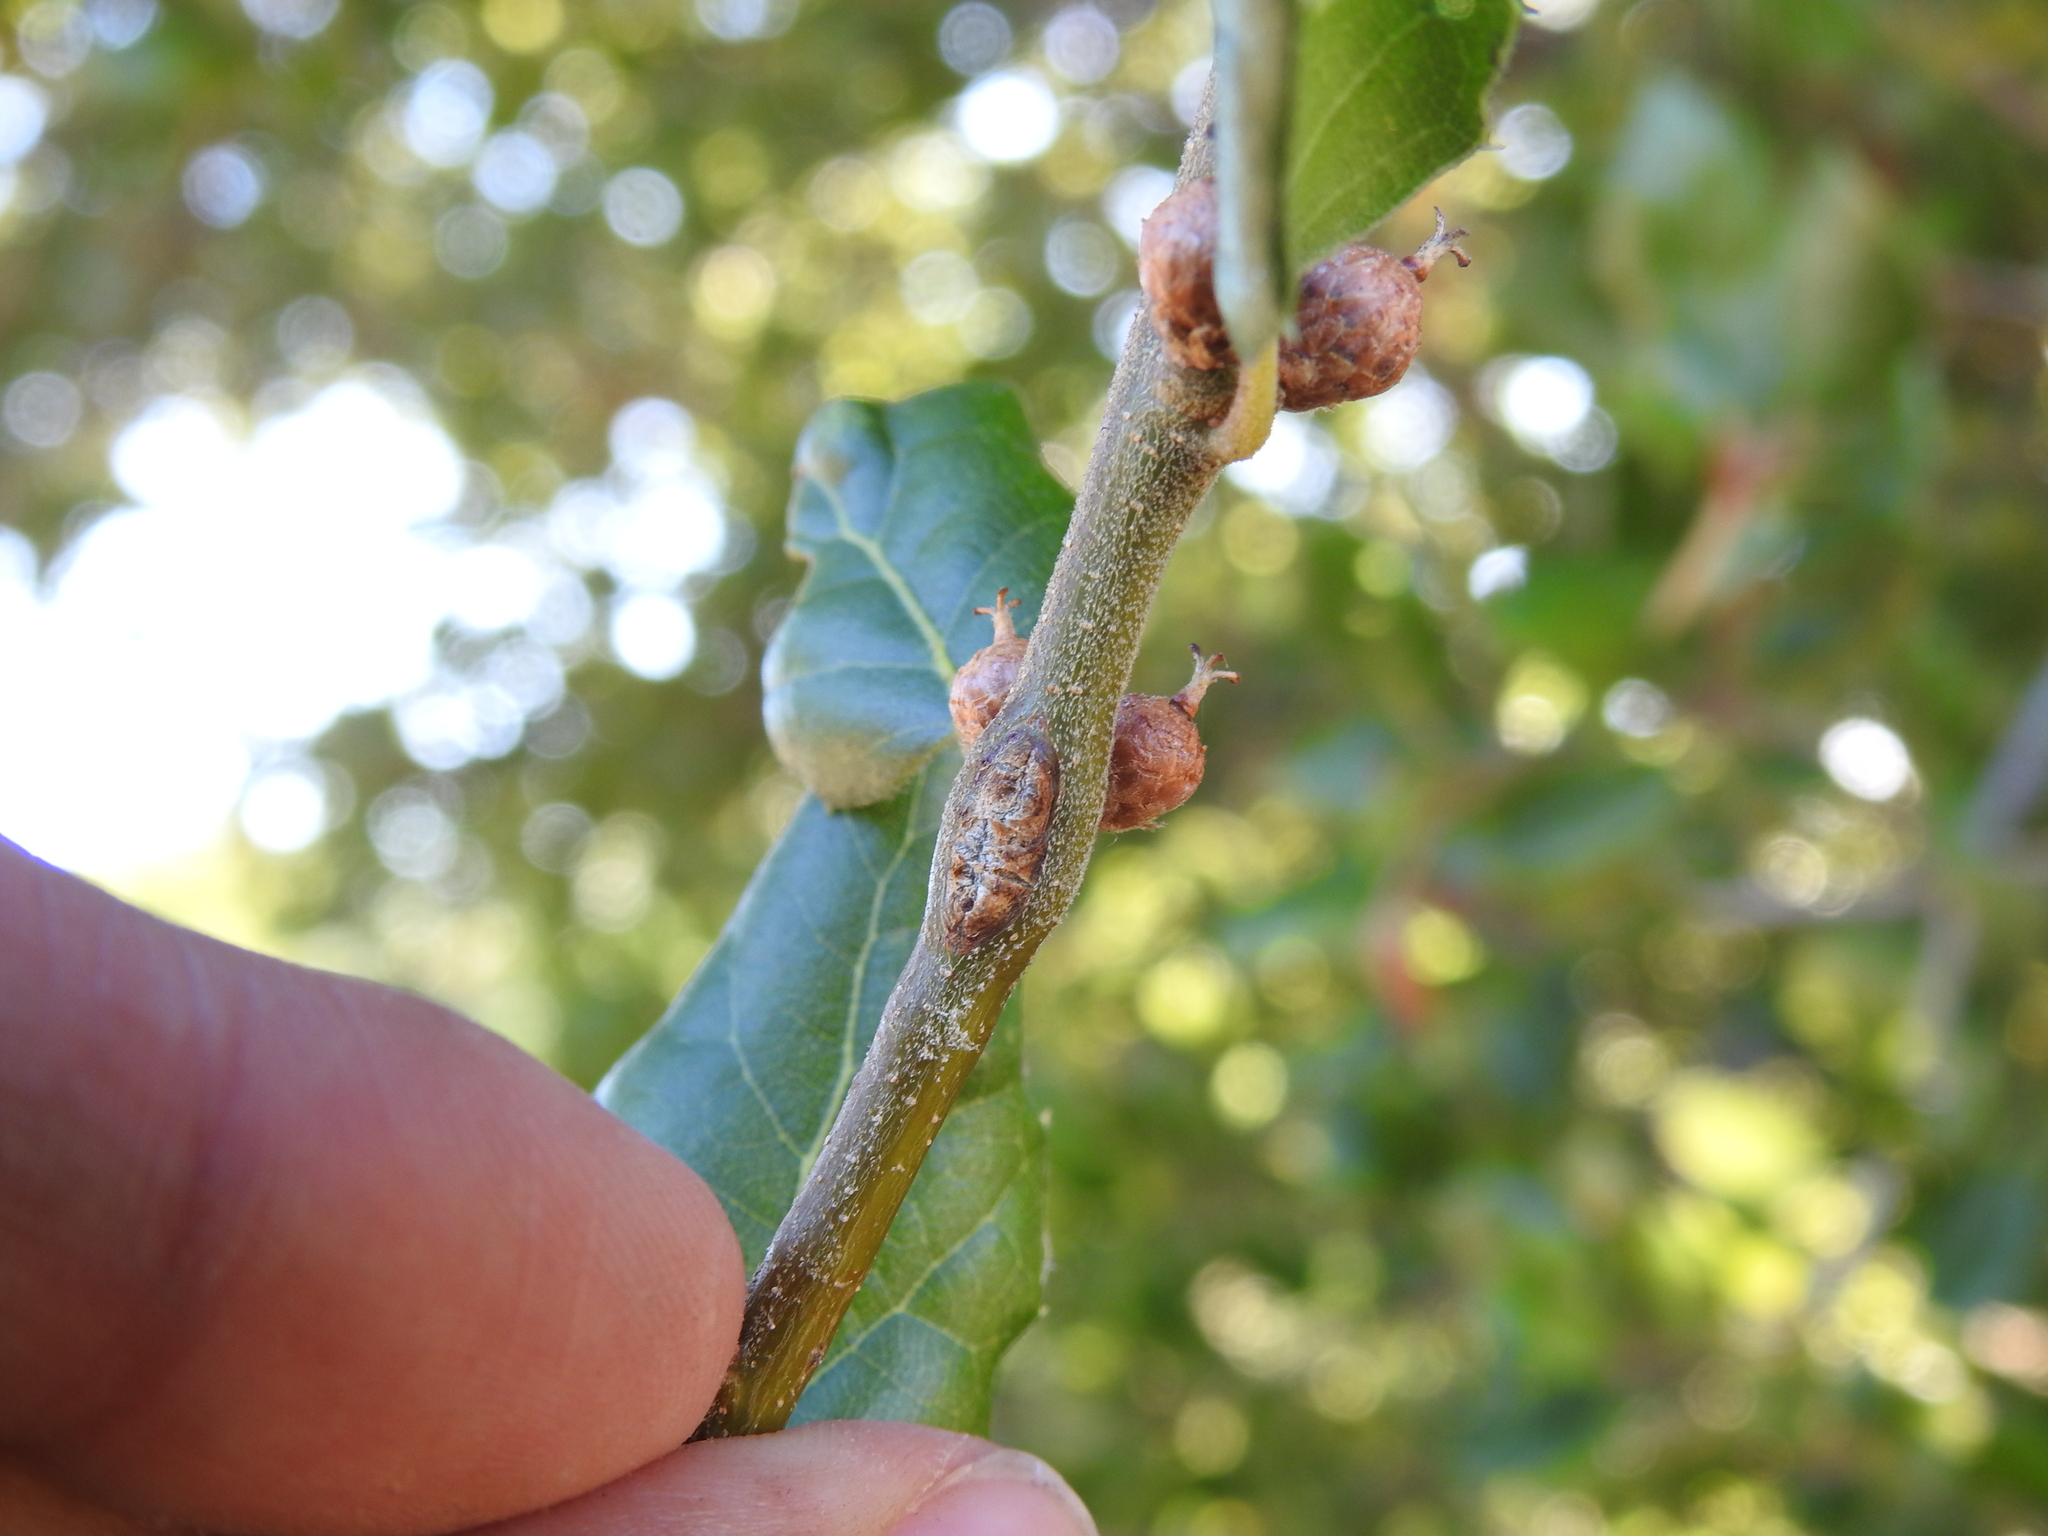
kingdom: Animalia
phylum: Arthropoda
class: Insecta
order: Hymenoptera
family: Cynipidae
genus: Amphibolips
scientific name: Amphibolips quercuspomiformis
